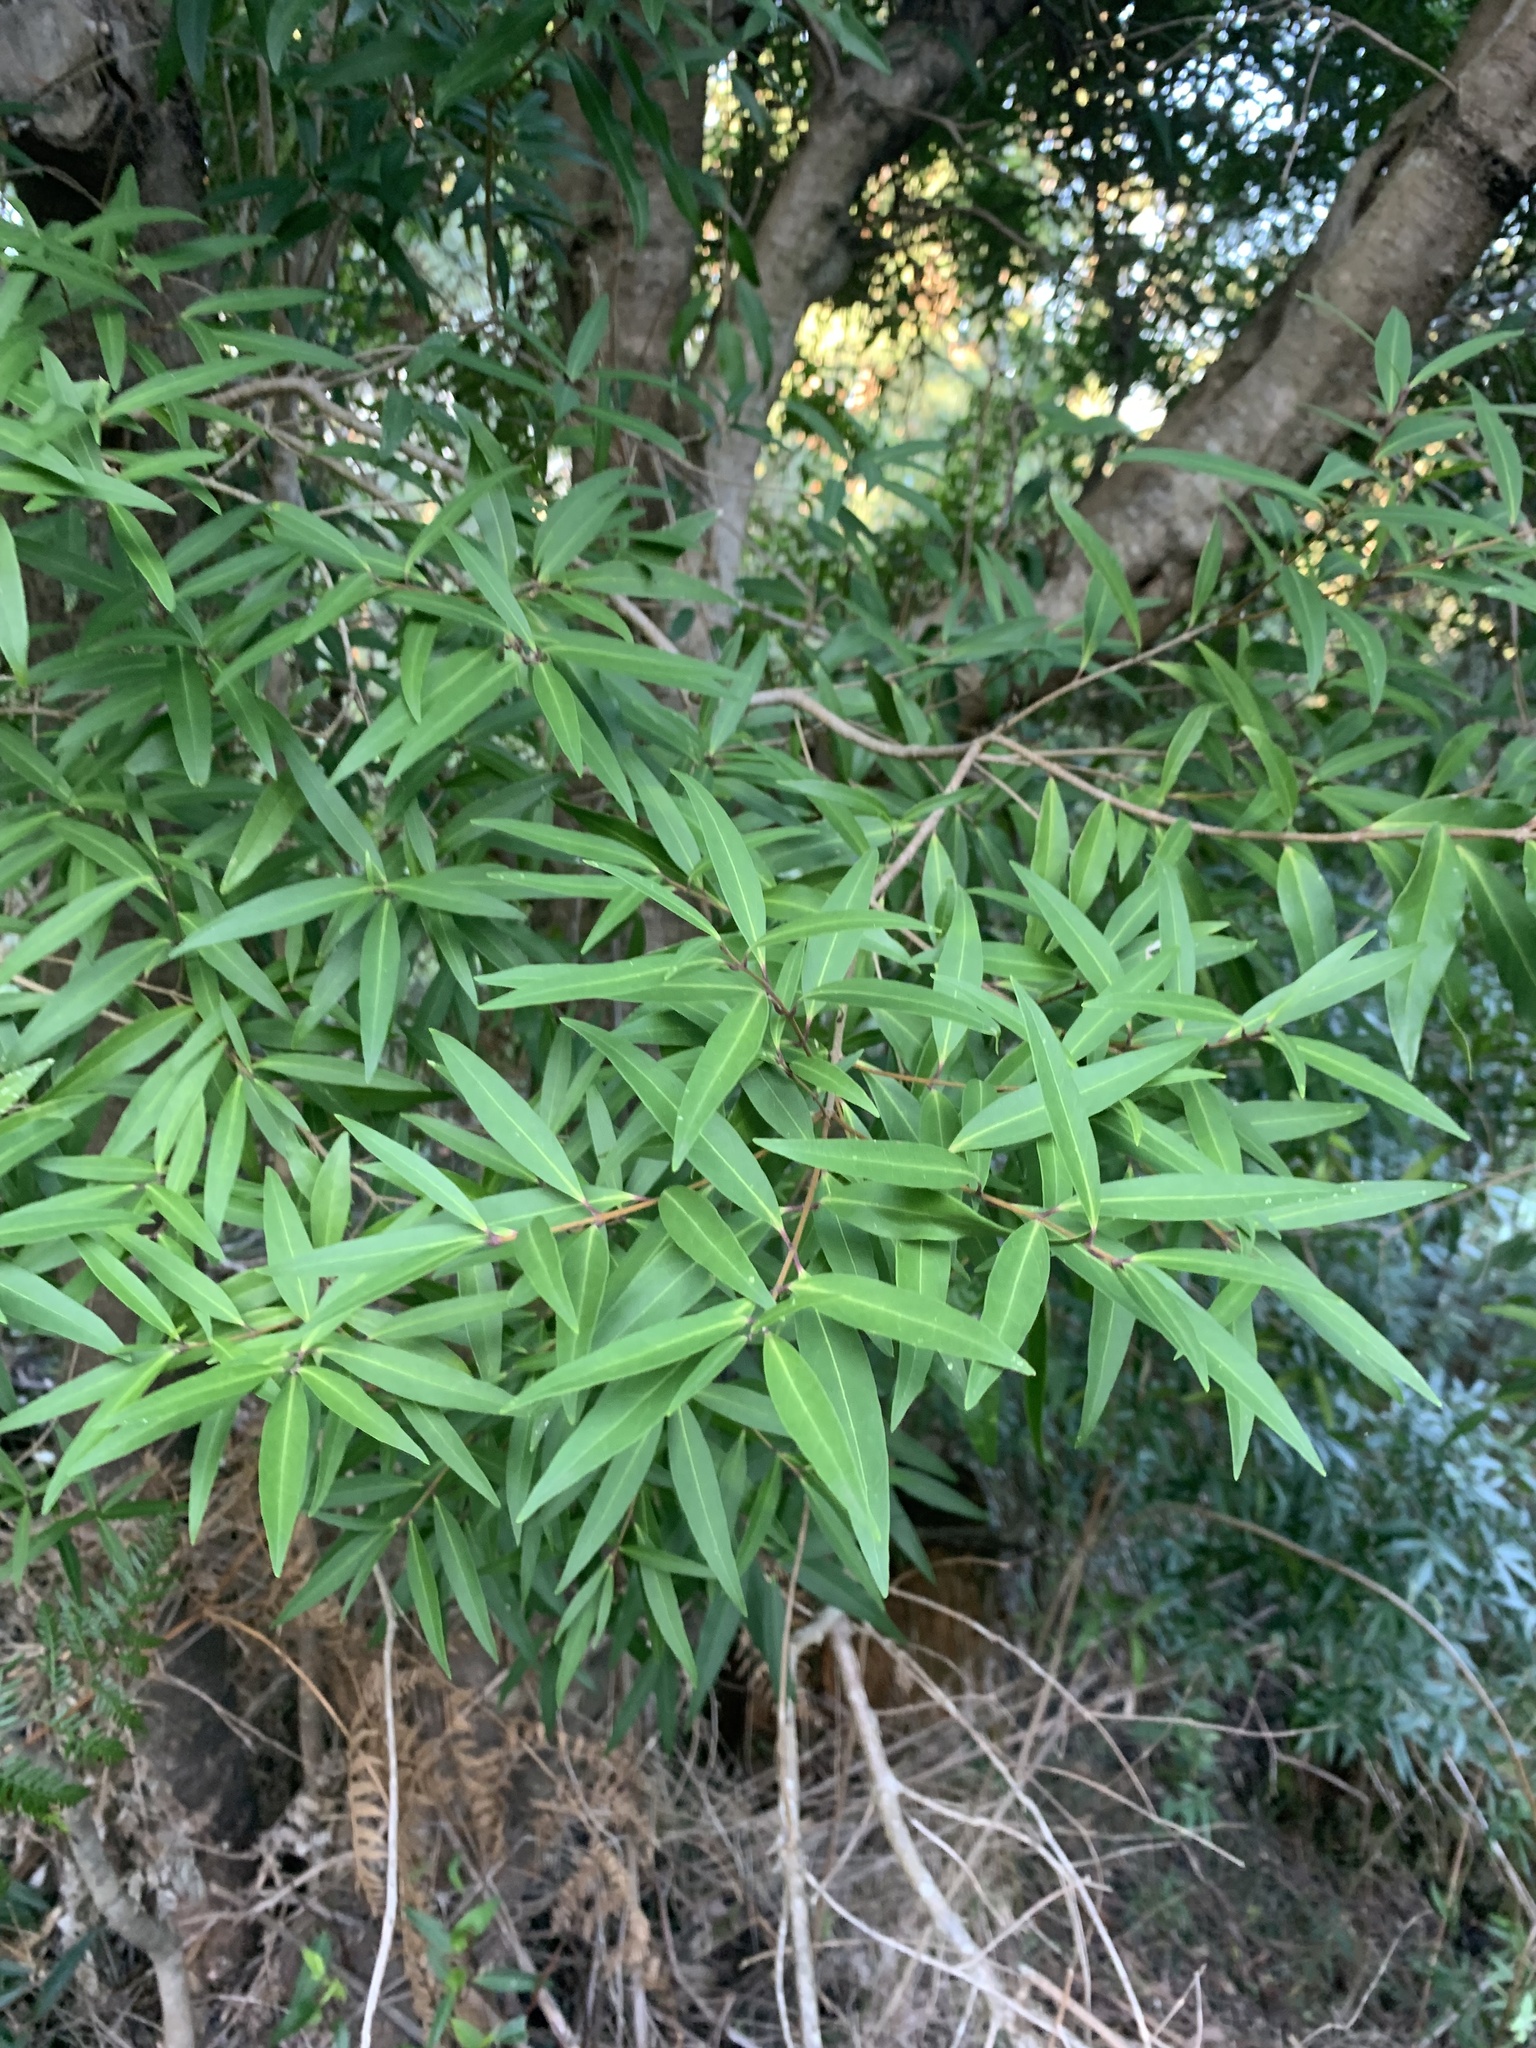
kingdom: Plantae
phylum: Tracheophyta
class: Magnoliopsida
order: Lamiales
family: Oleaceae
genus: Notelaea
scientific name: Notelaea ligustrina
